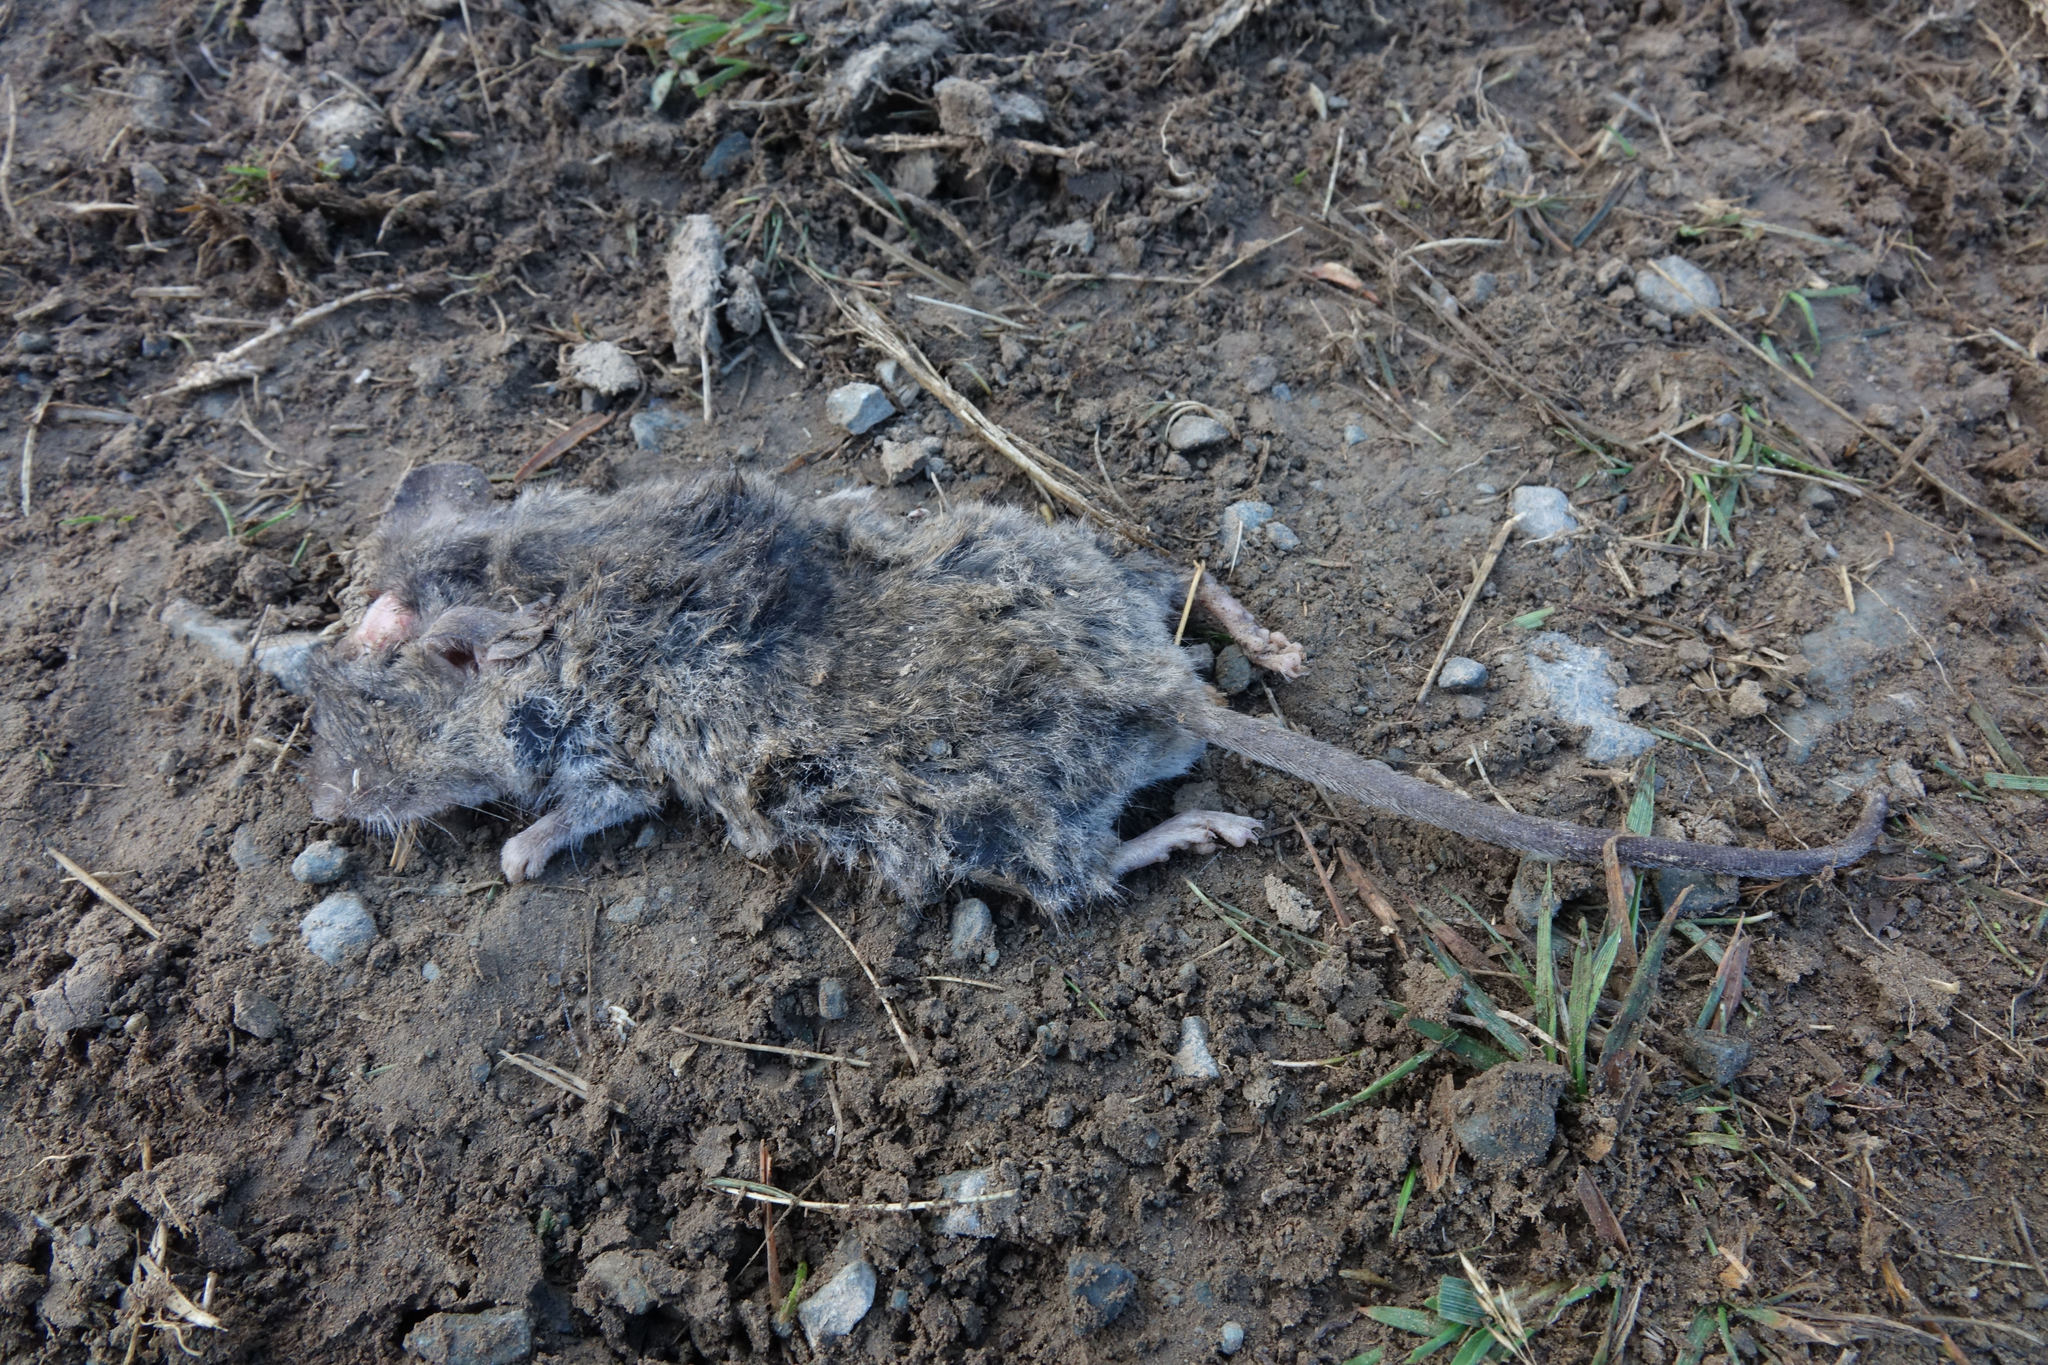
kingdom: Animalia
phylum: Chordata
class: Mammalia
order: Rodentia
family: Muridae
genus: Mus
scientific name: Mus musculus
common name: House mouse
